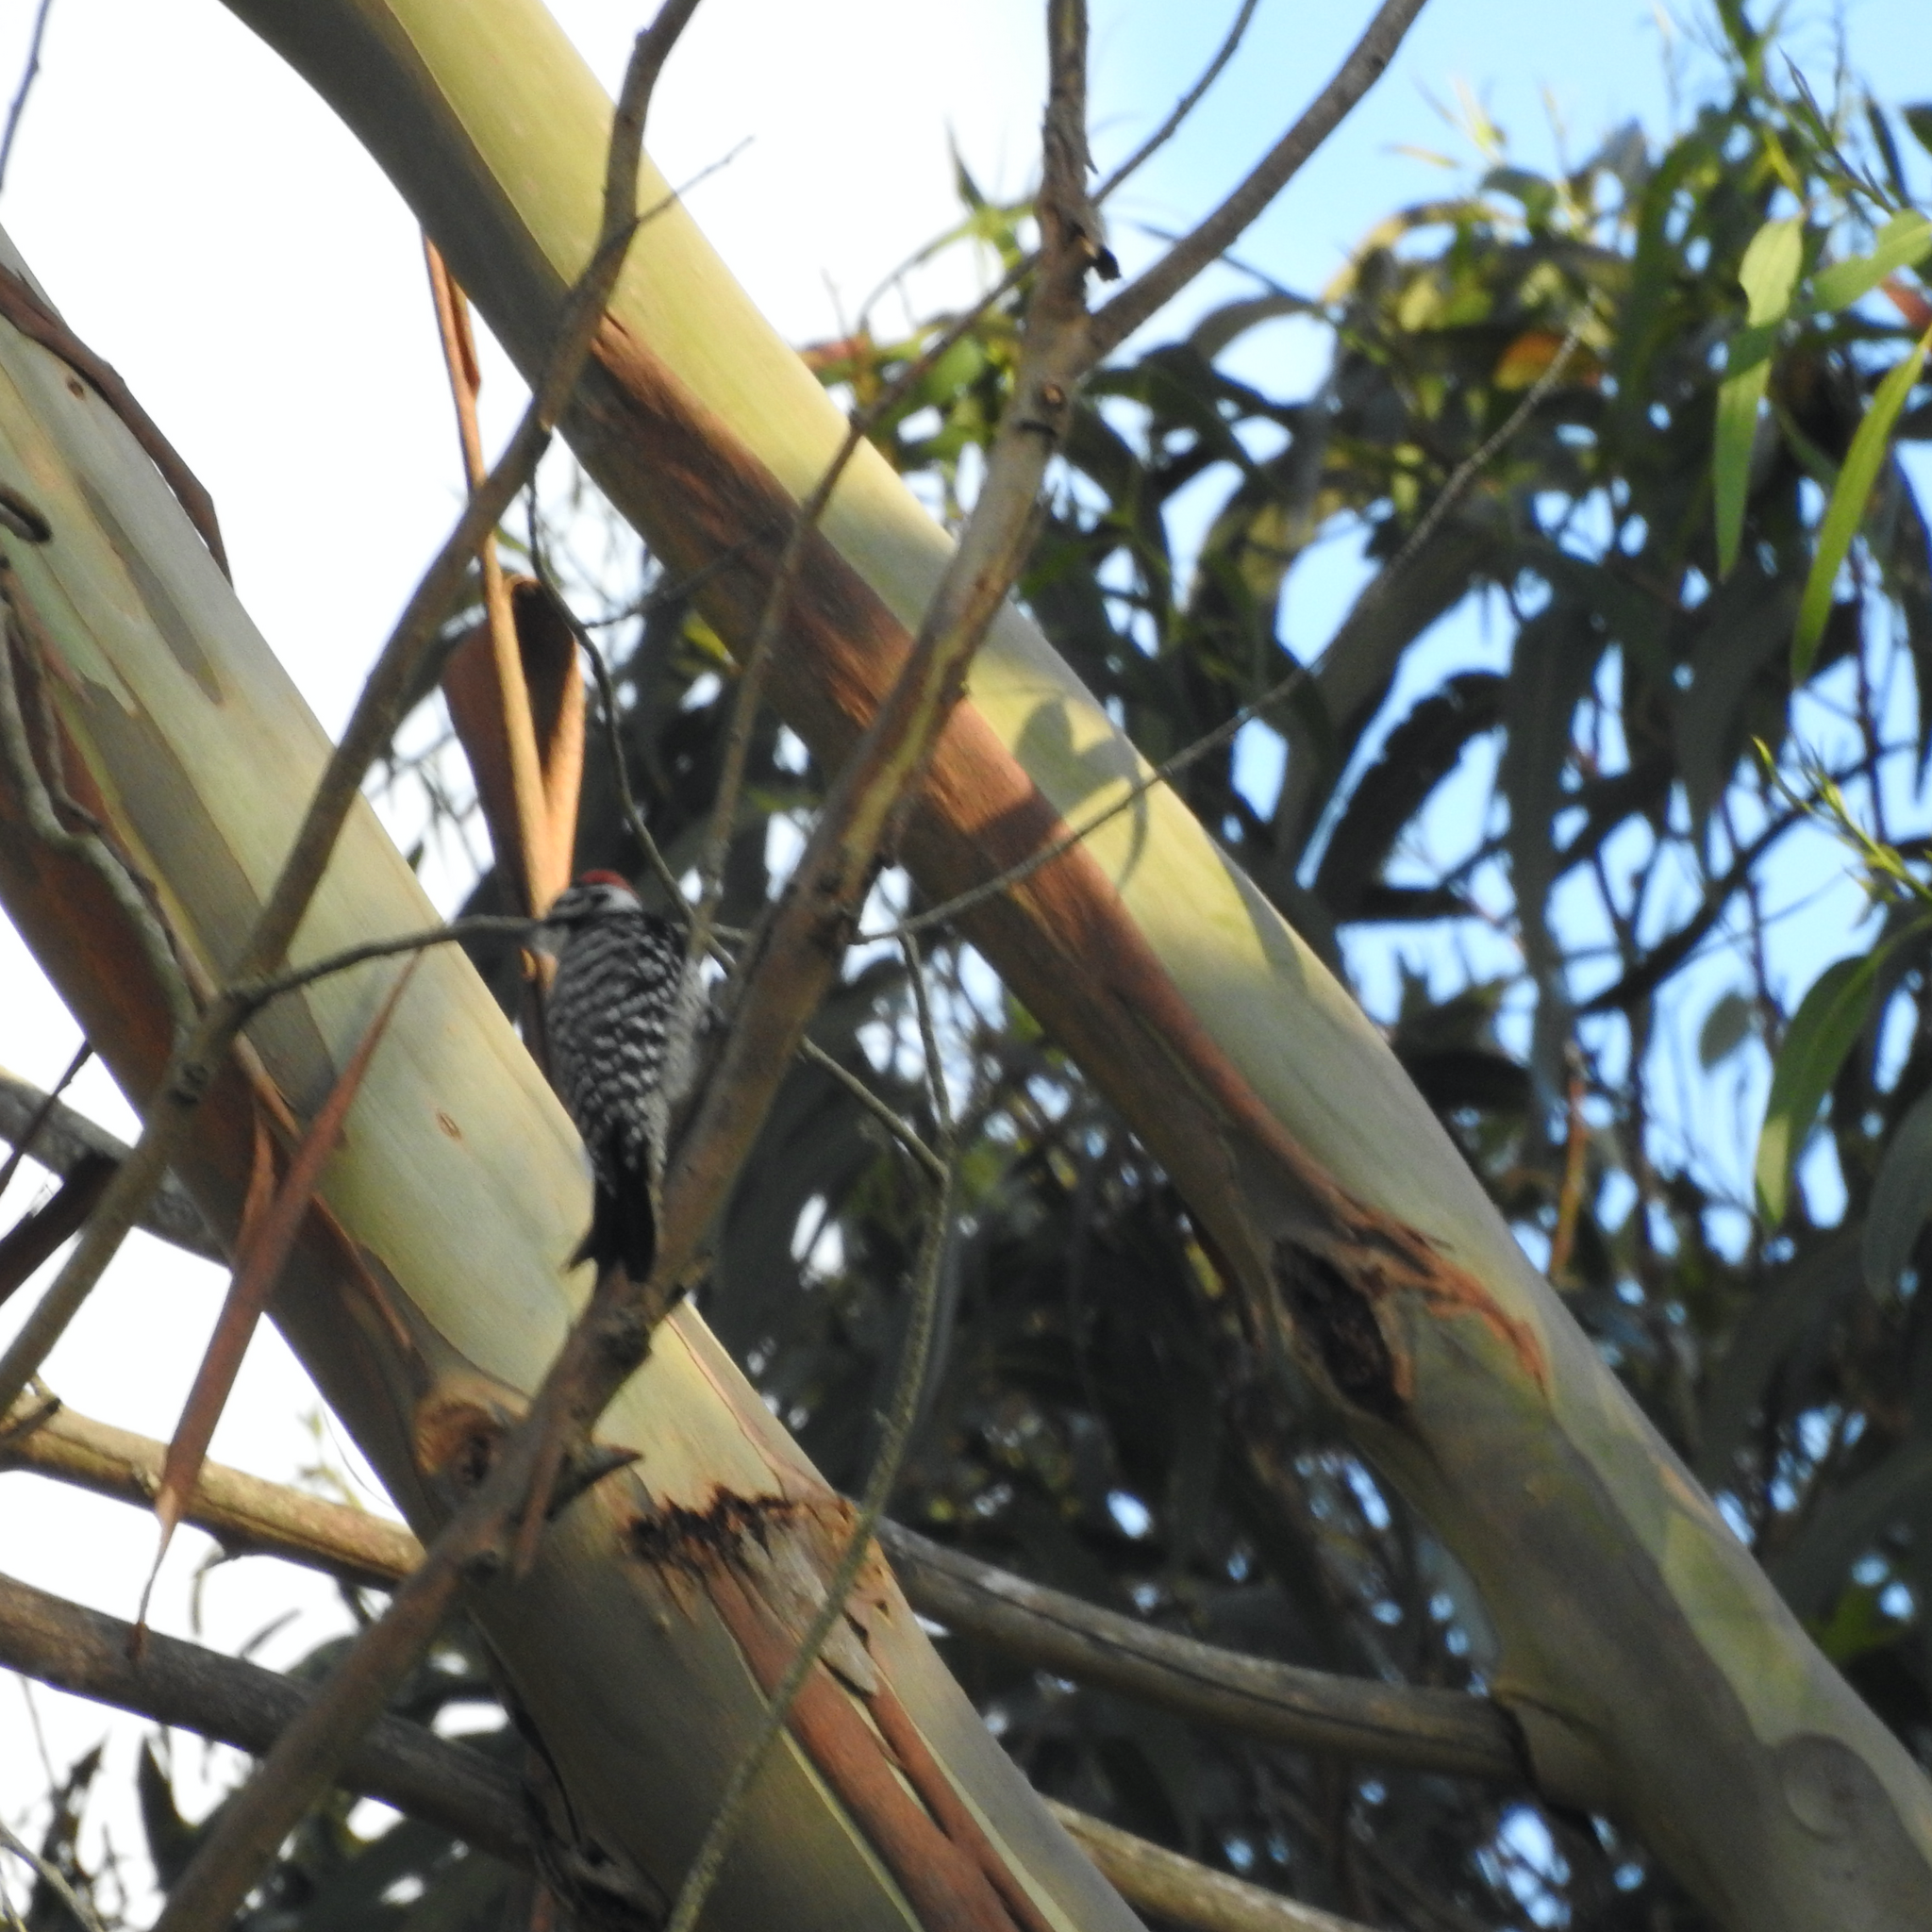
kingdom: Animalia
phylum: Chordata
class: Aves
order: Piciformes
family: Picidae
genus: Dryobates
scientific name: Dryobates nuttallii
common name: Nuttall's woodpecker
